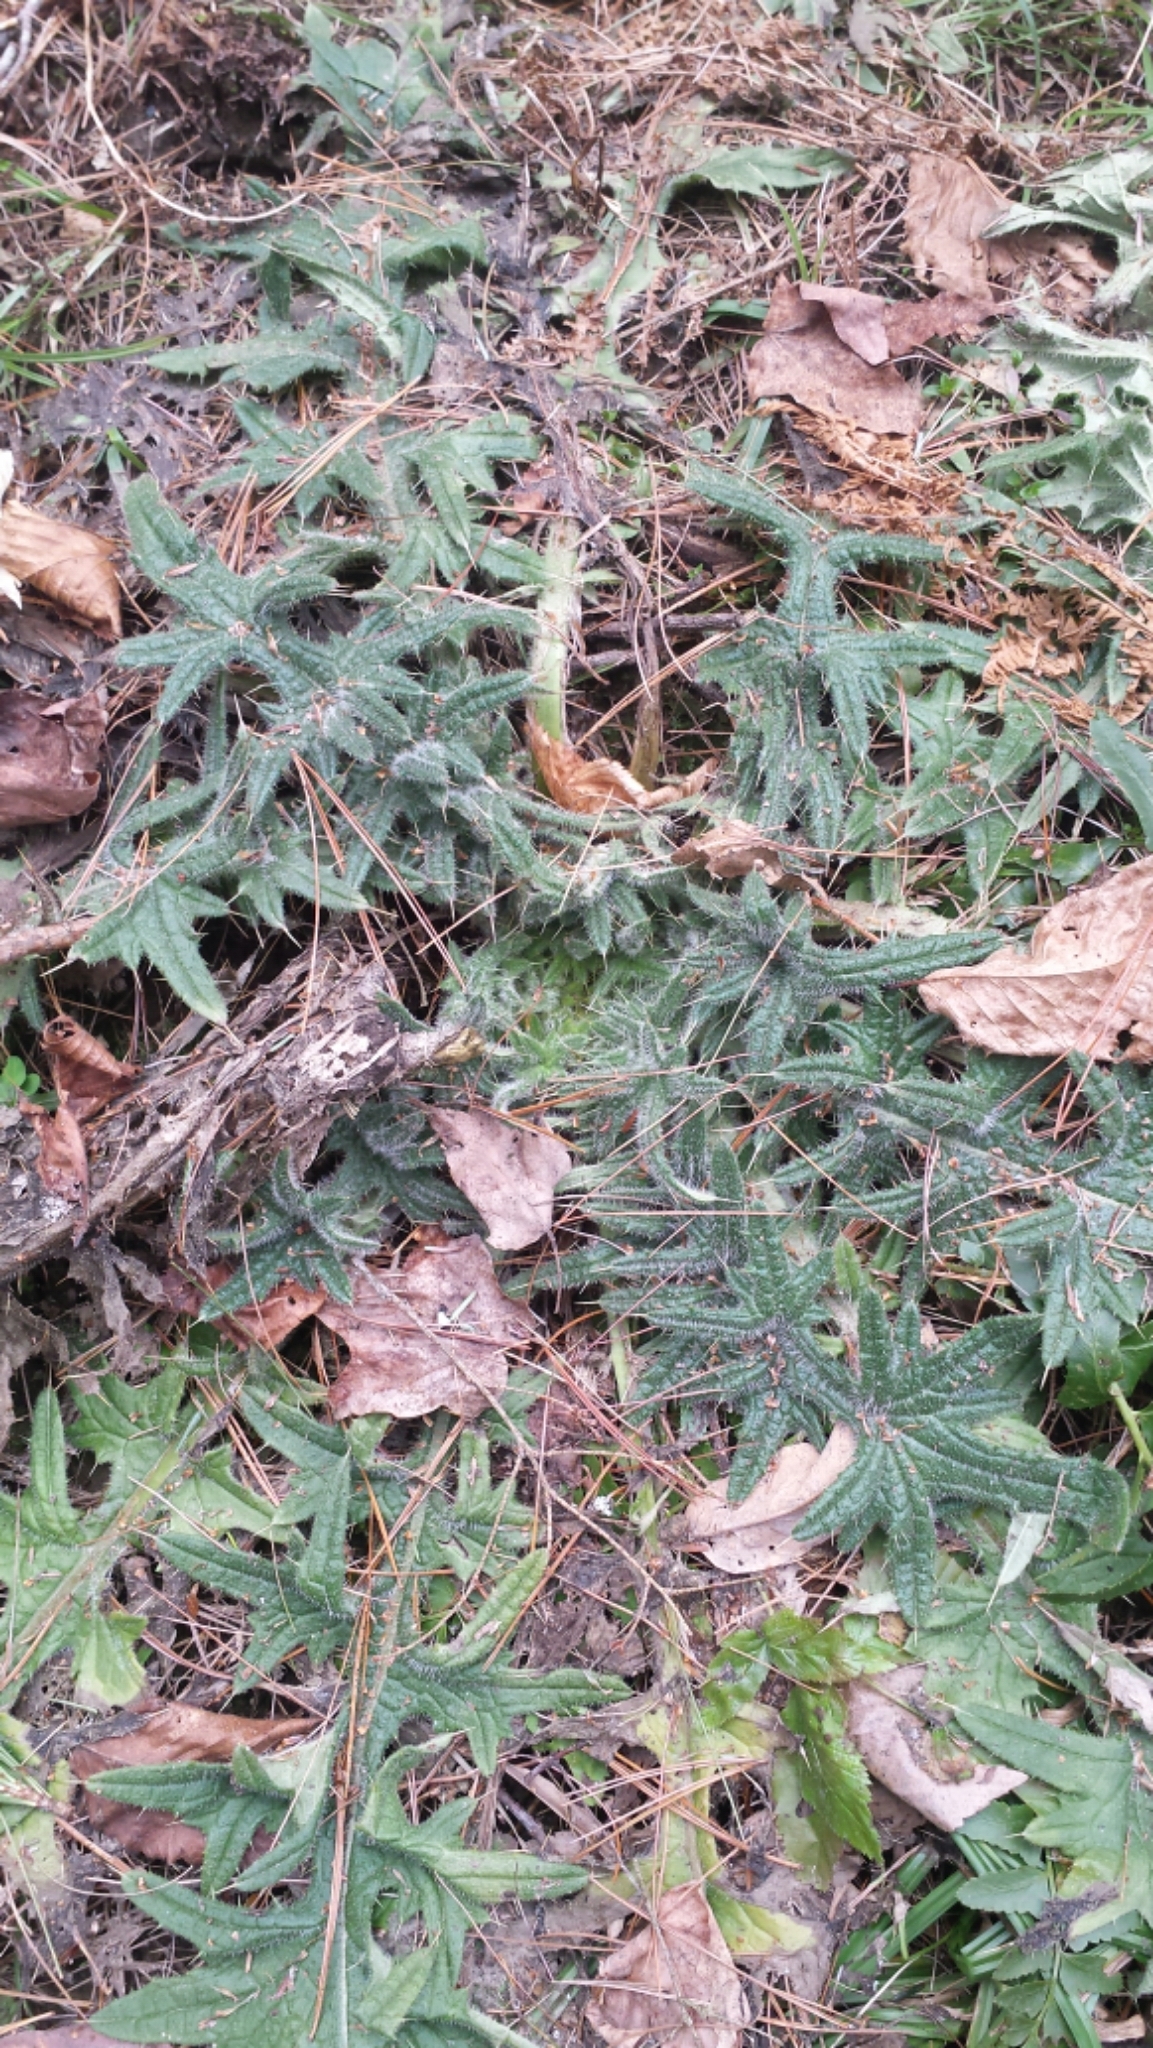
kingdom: Plantae
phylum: Tracheophyta
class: Magnoliopsida
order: Asterales
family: Asteraceae
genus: Cirsium
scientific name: Cirsium vulgare
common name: Bull thistle
